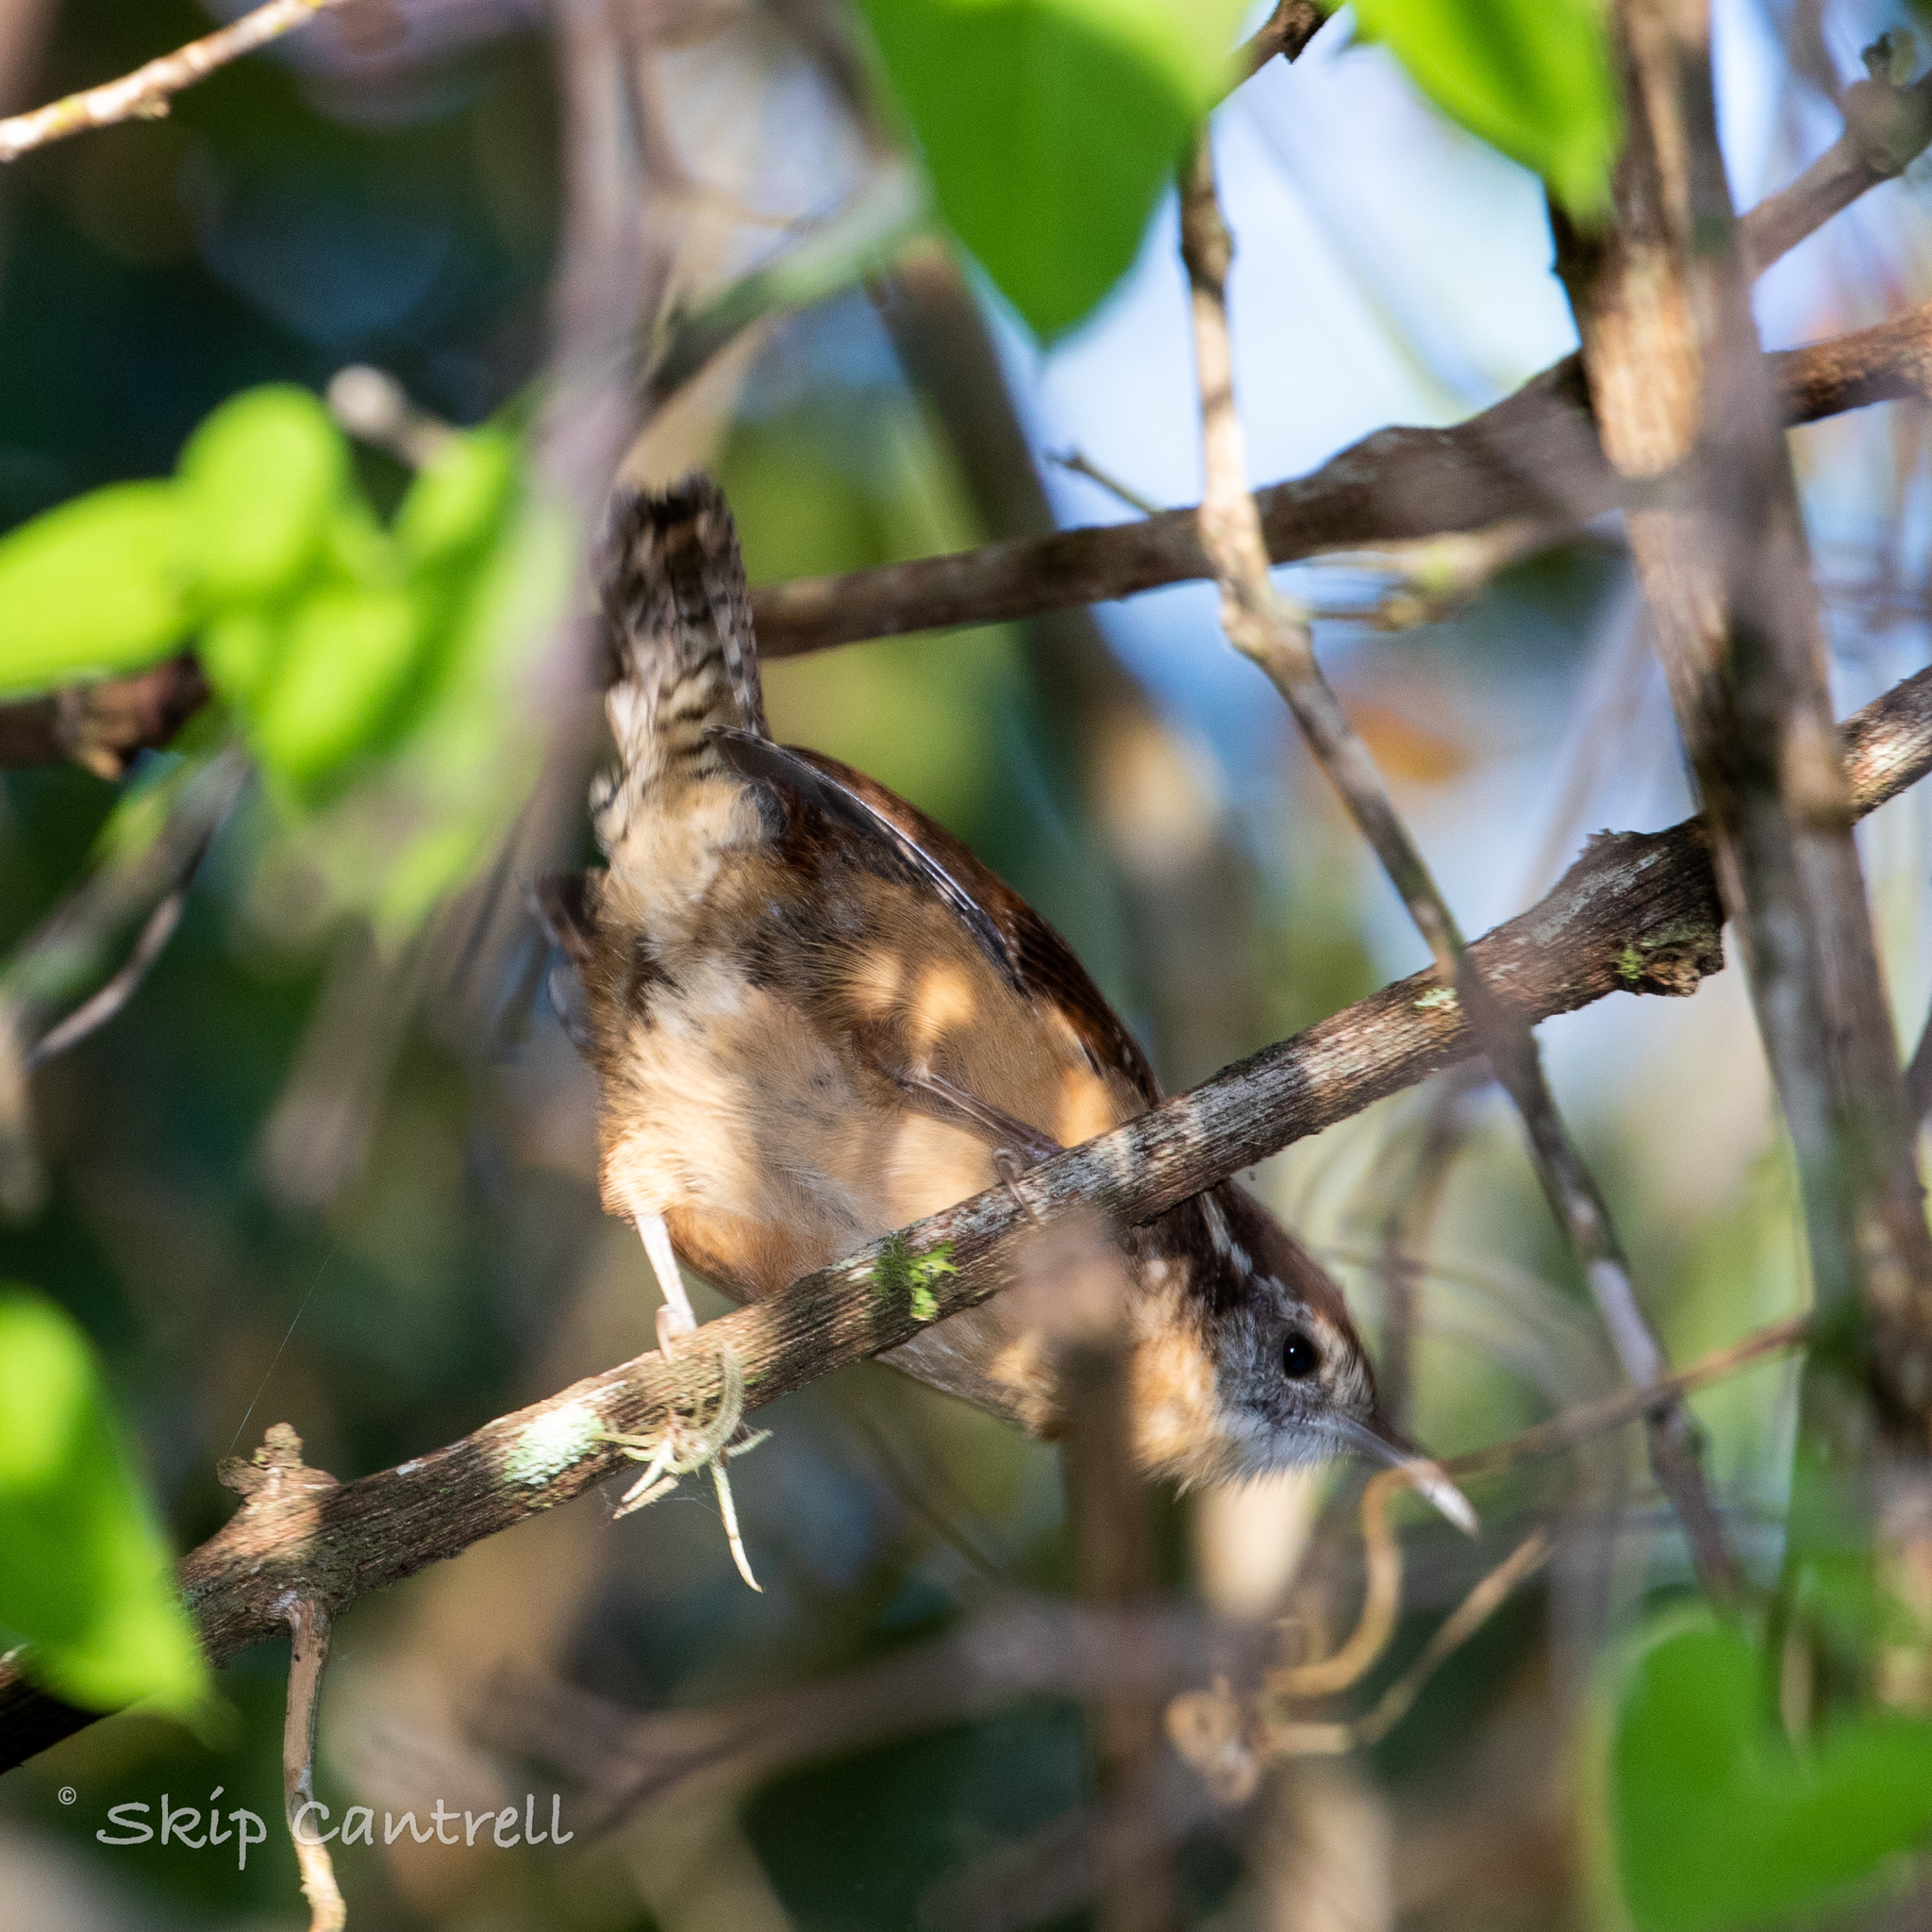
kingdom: Animalia
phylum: Chordata
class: Aves
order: Passeriformes
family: Troglodytidae
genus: Thryothorus
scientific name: Thryothorus ludovicianus
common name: Carolina wren
